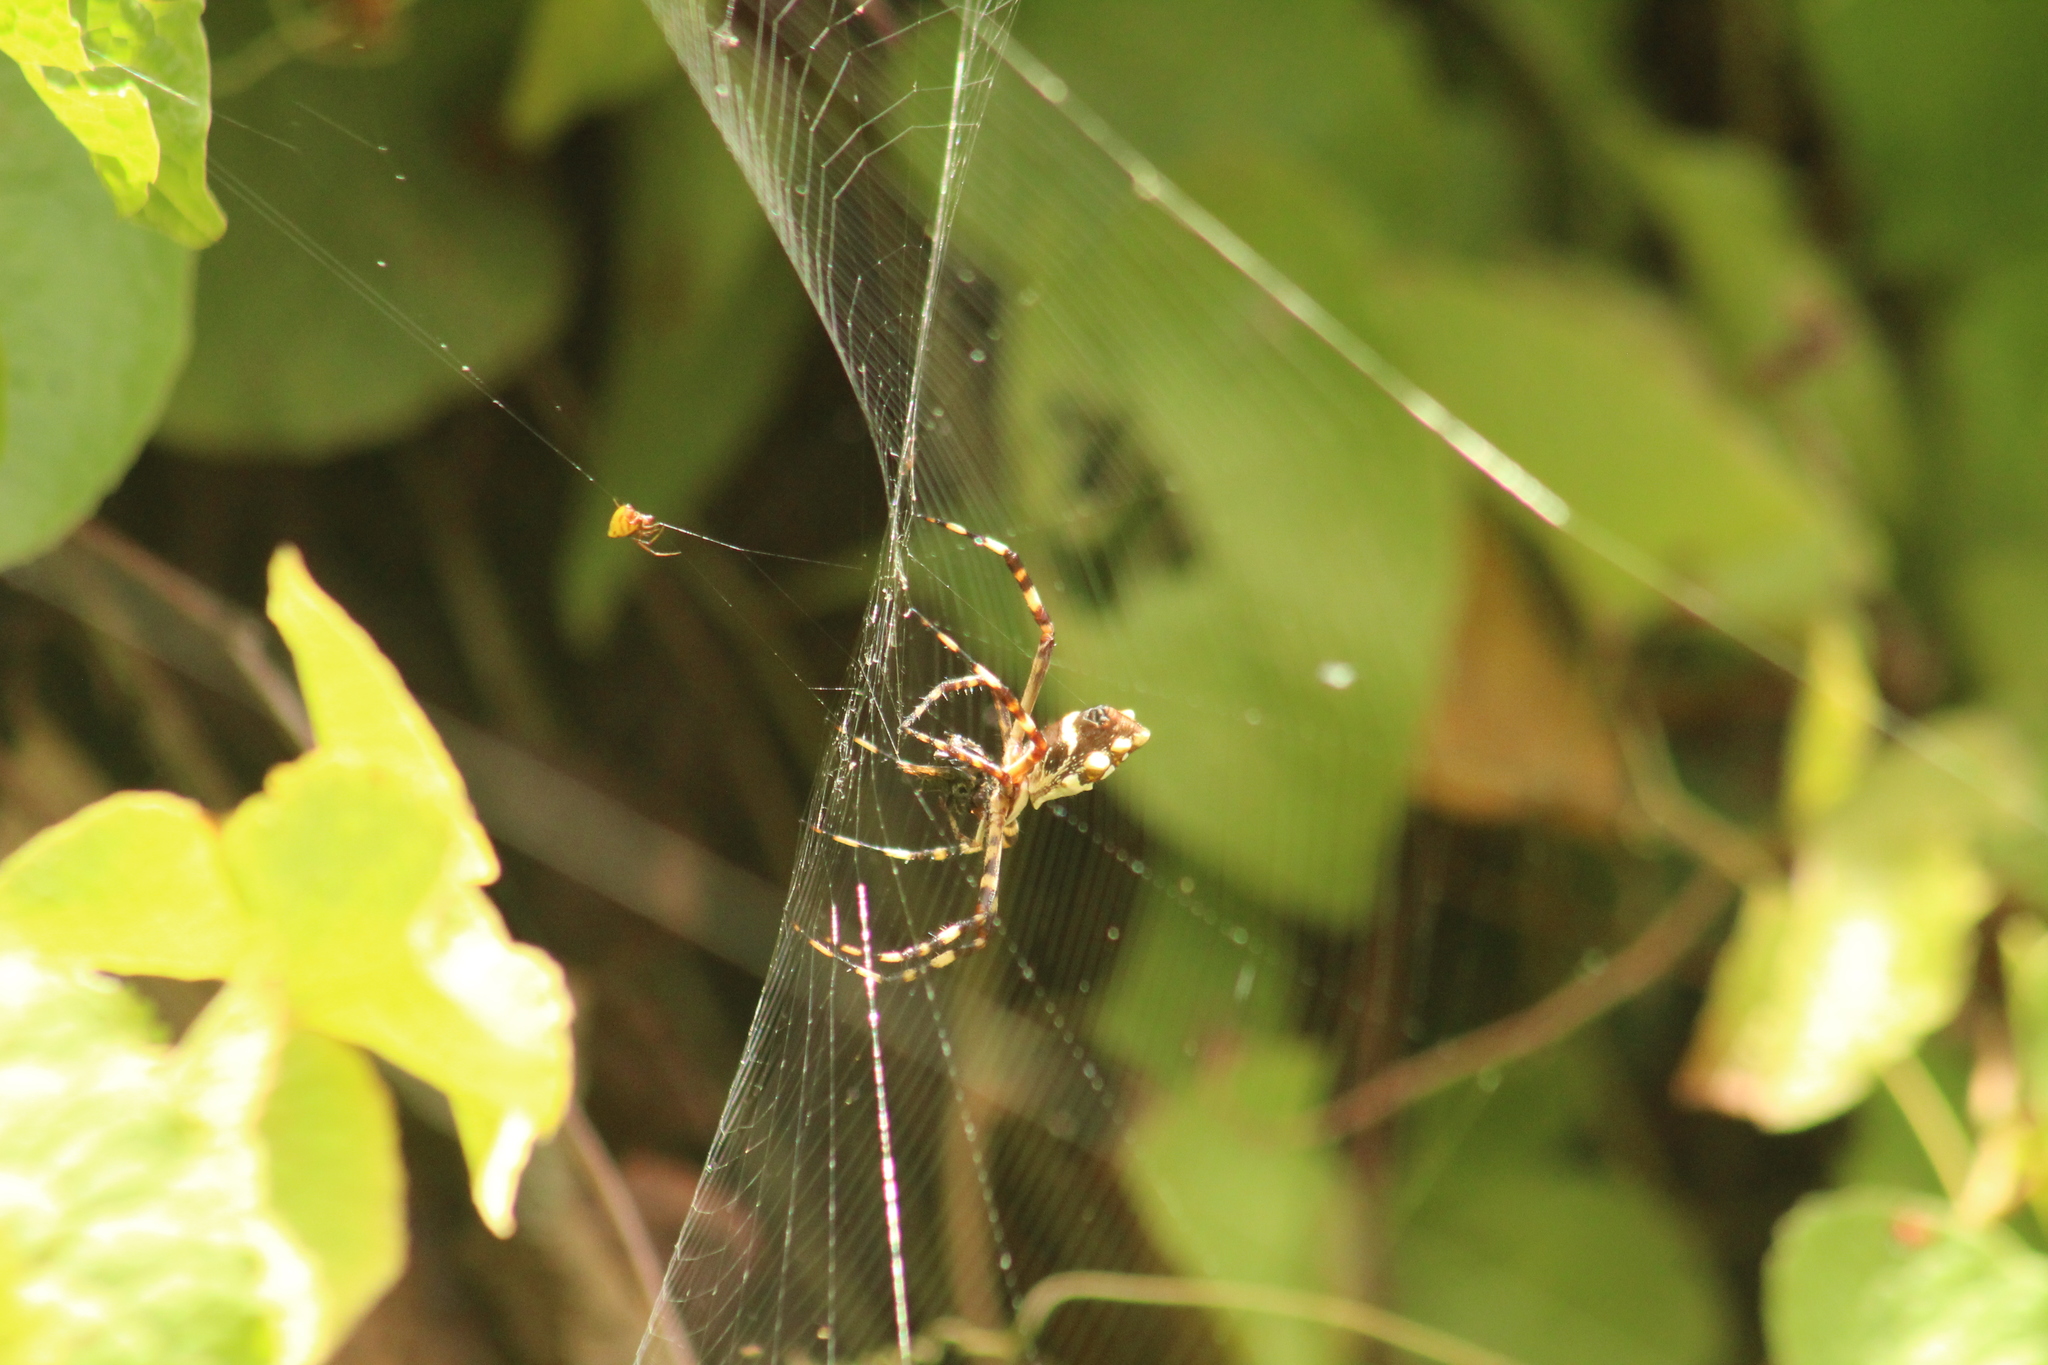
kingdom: Animalia
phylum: Arthropoda
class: Arachnida
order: Araneae
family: Araneidae
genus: Argiope
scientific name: Argiope argentata
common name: Orb weavers
